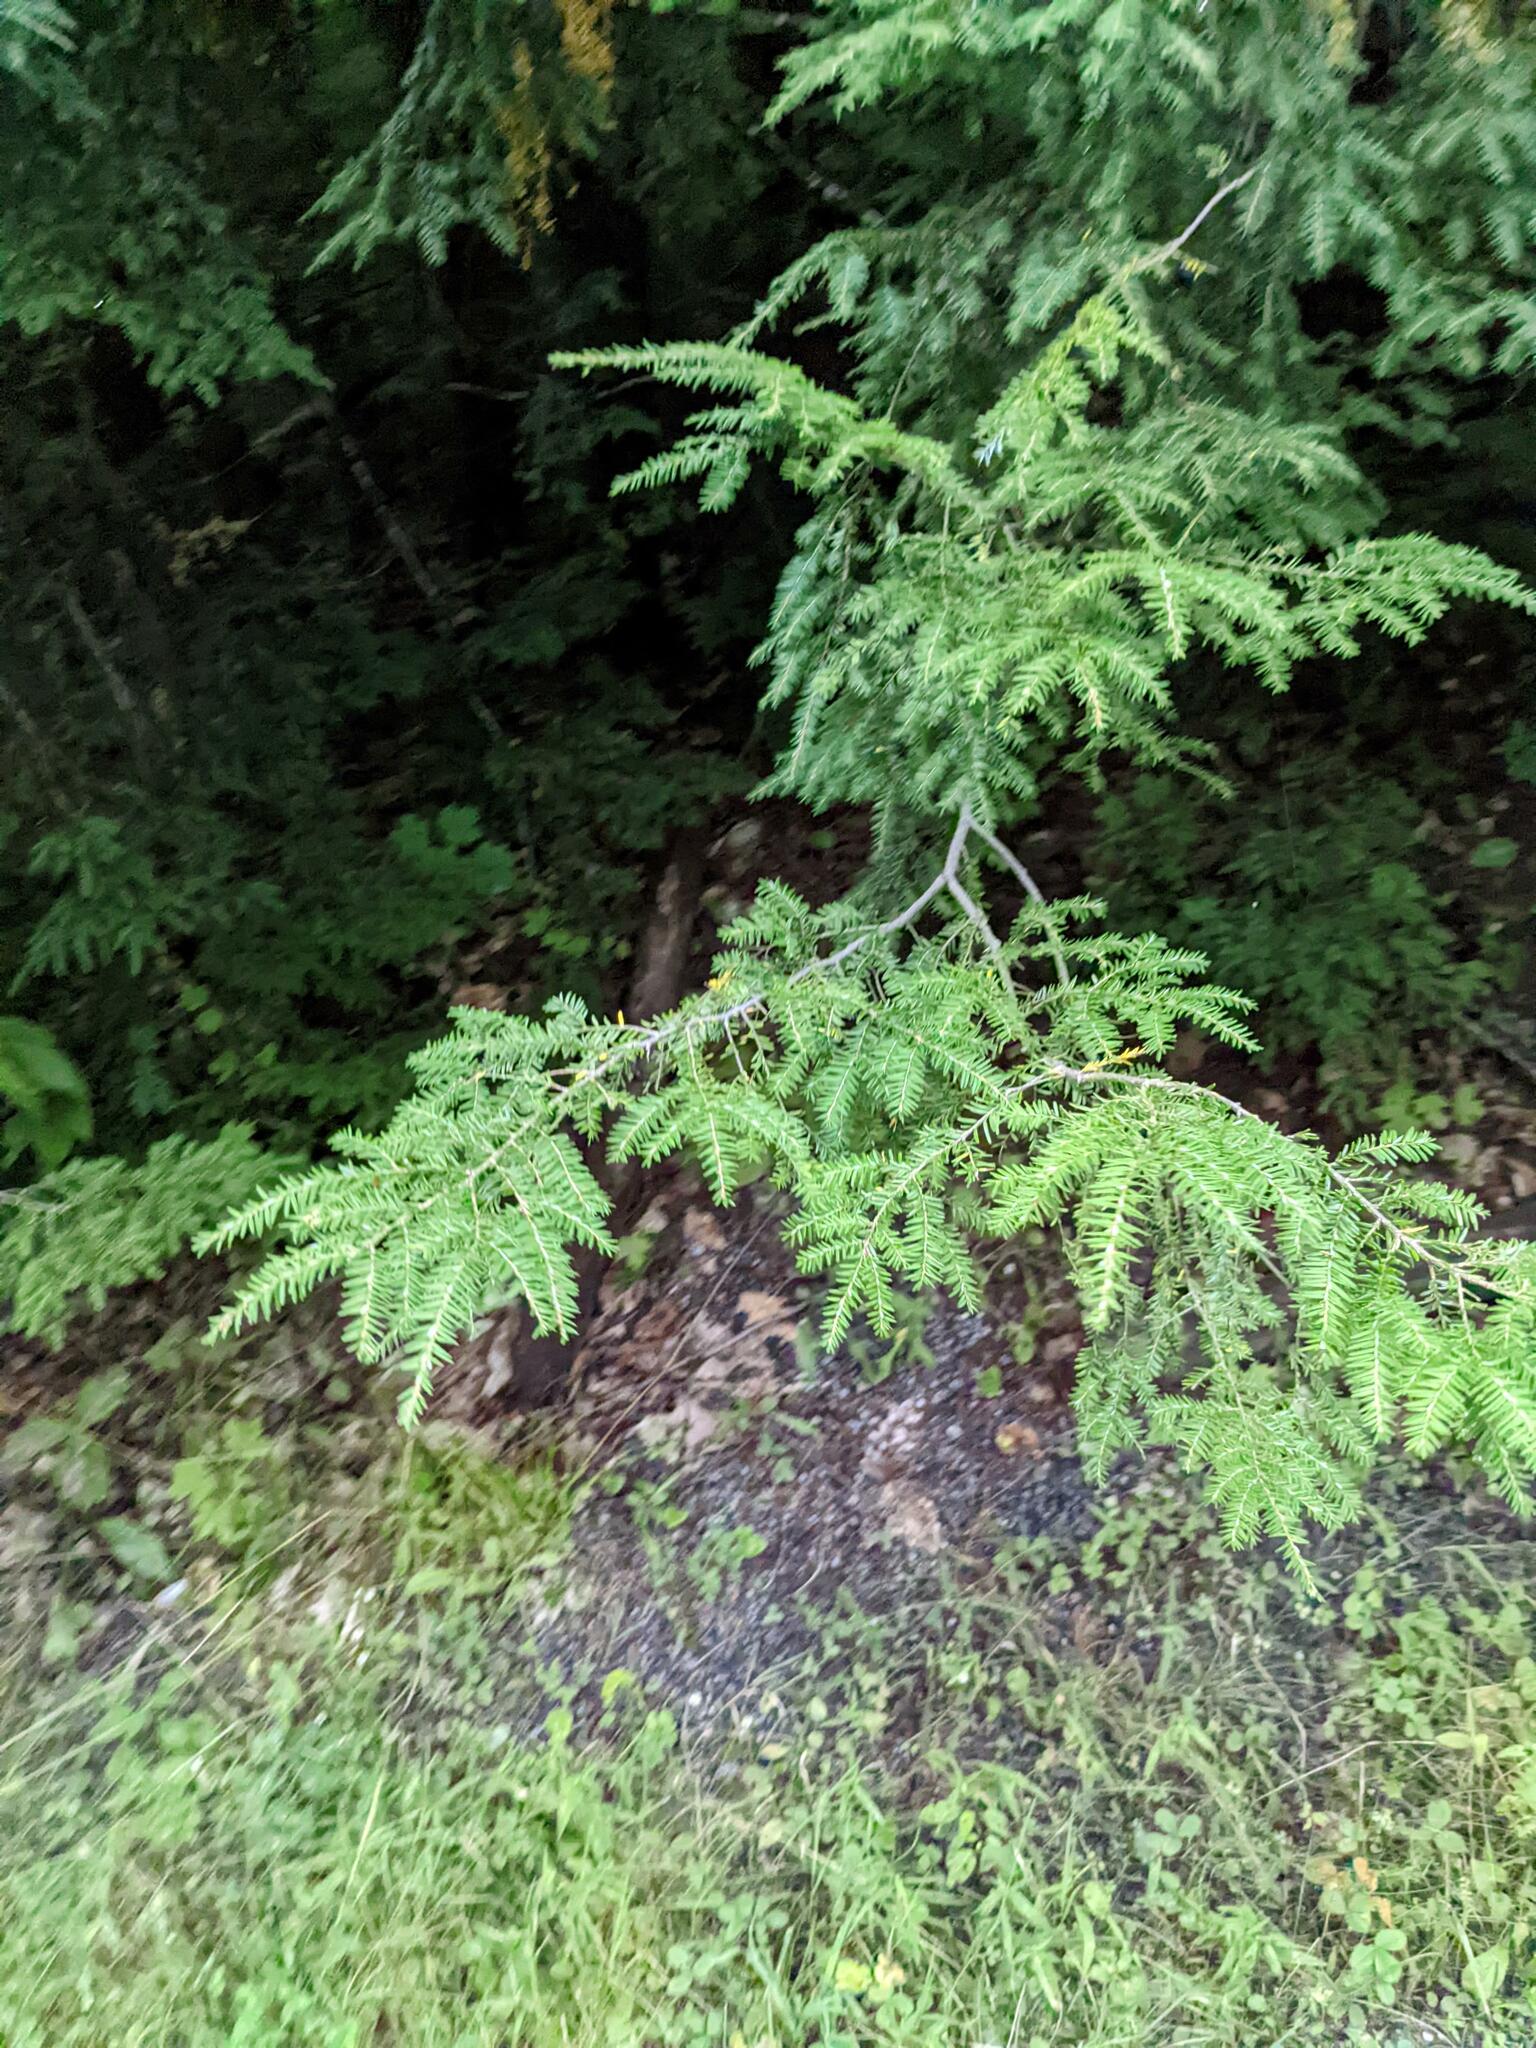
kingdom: Plantae
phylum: Tracheophyta
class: Pinopsida
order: Pinales
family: Pinaceae
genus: Tsuga
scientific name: Tsuga canadensis
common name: Eastern hemlock
